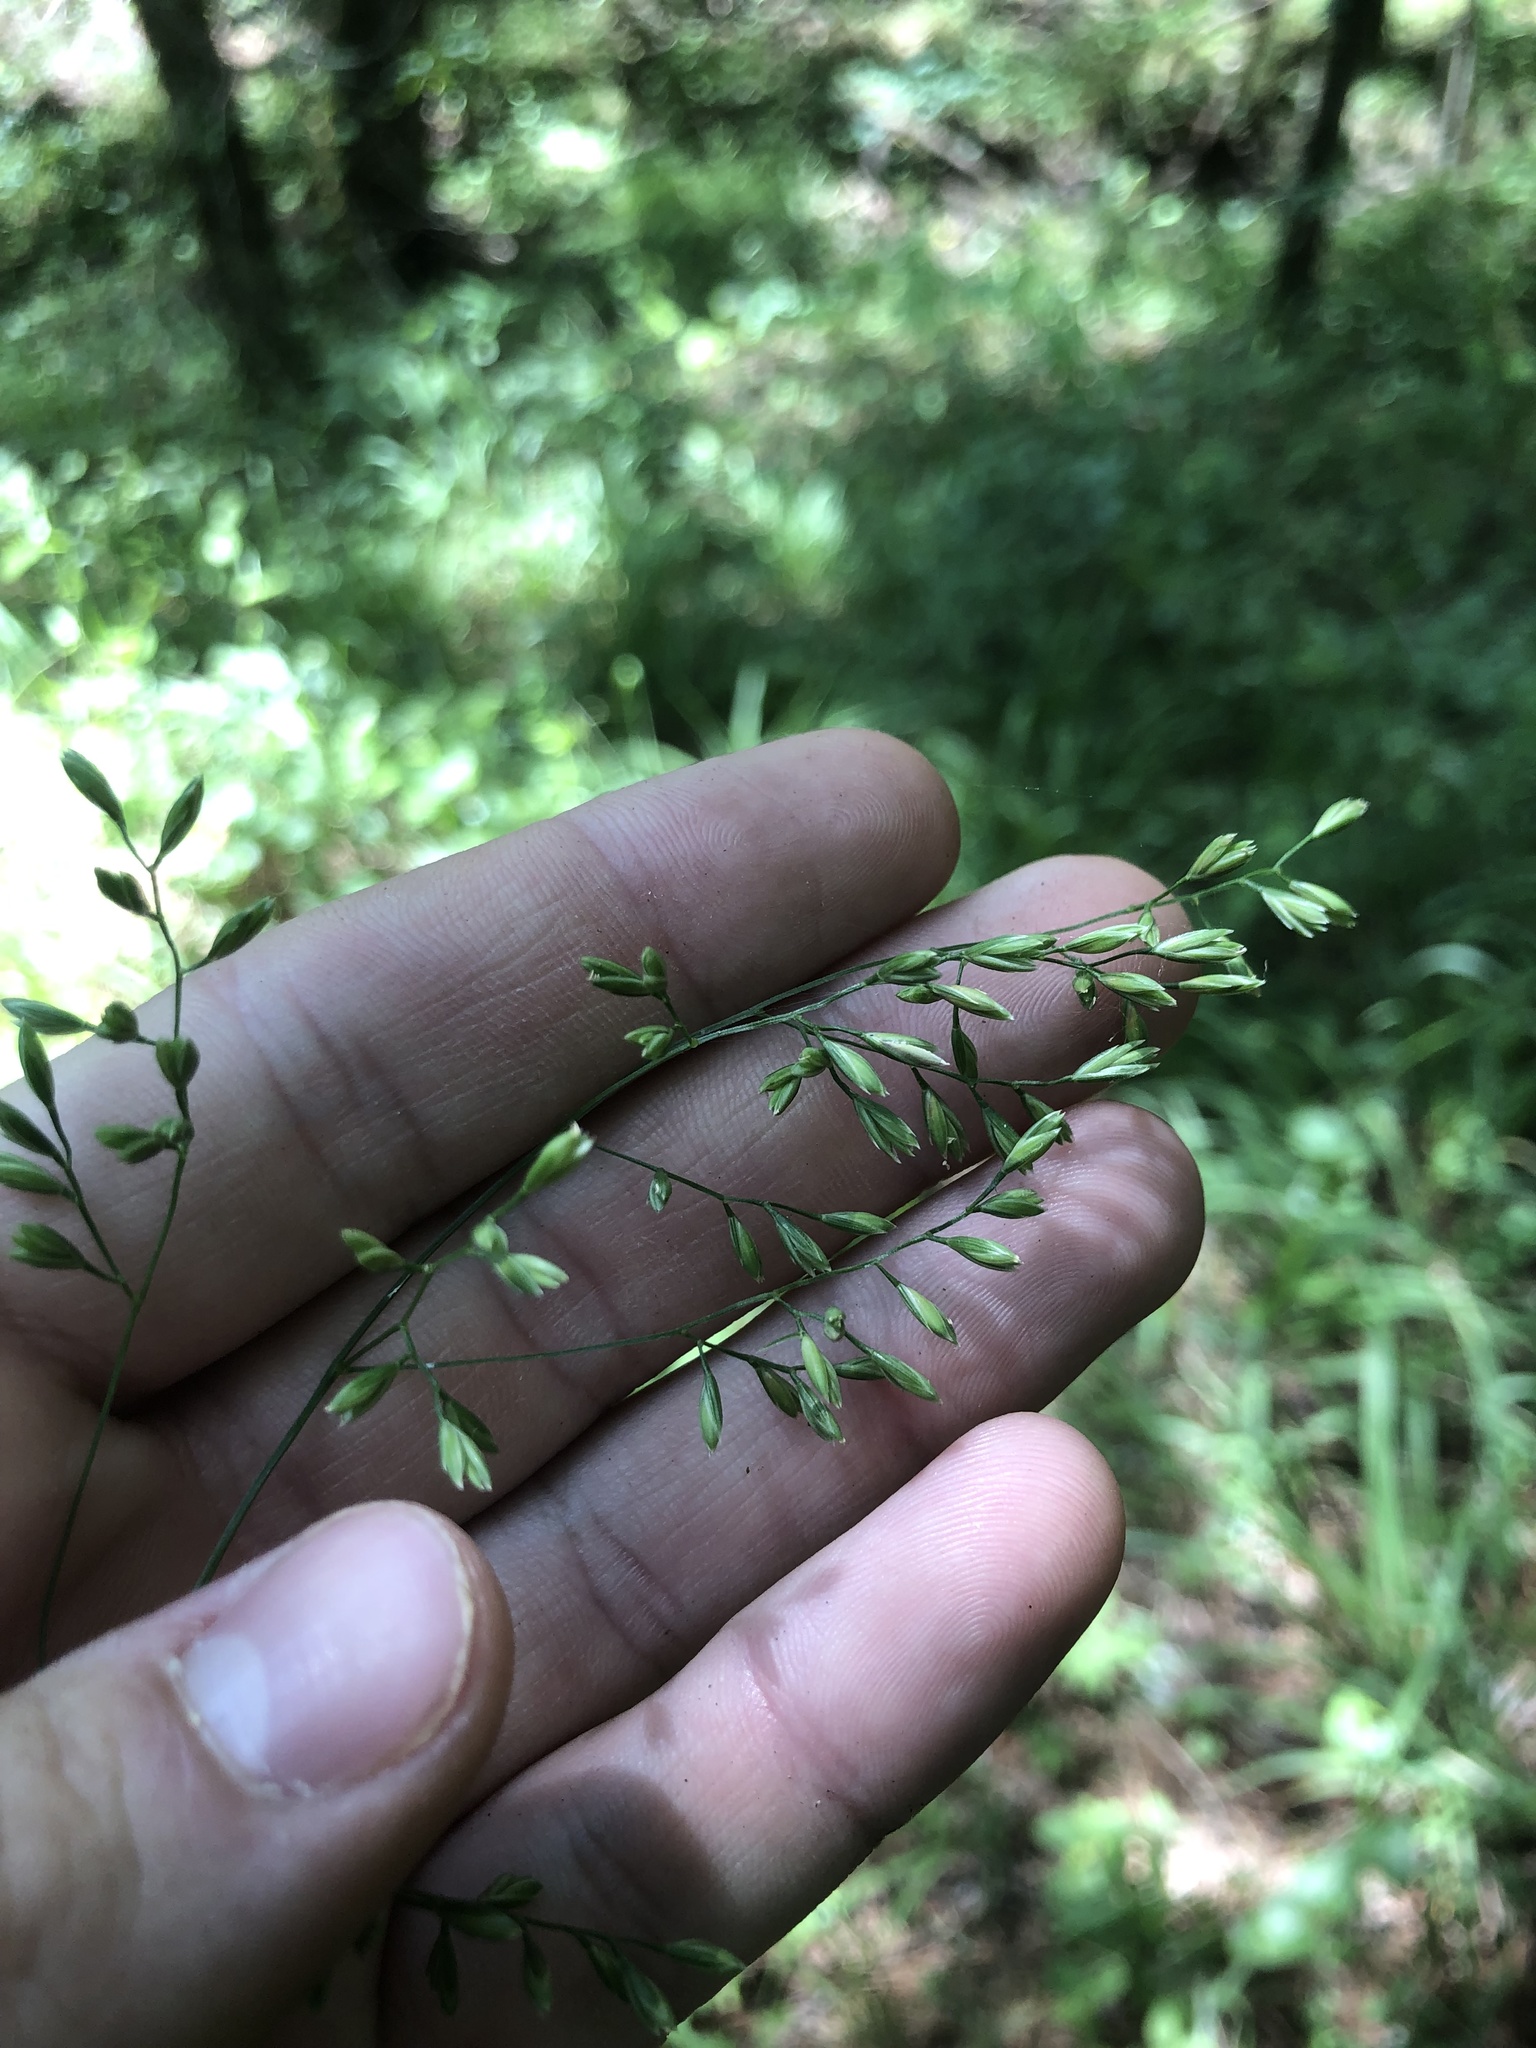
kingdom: Plantae
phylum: Tracheophyta
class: Liliopsida
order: Poales
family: Poaceae
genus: Festuca
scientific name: Festuca paradoxa
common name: Cluster fescue
